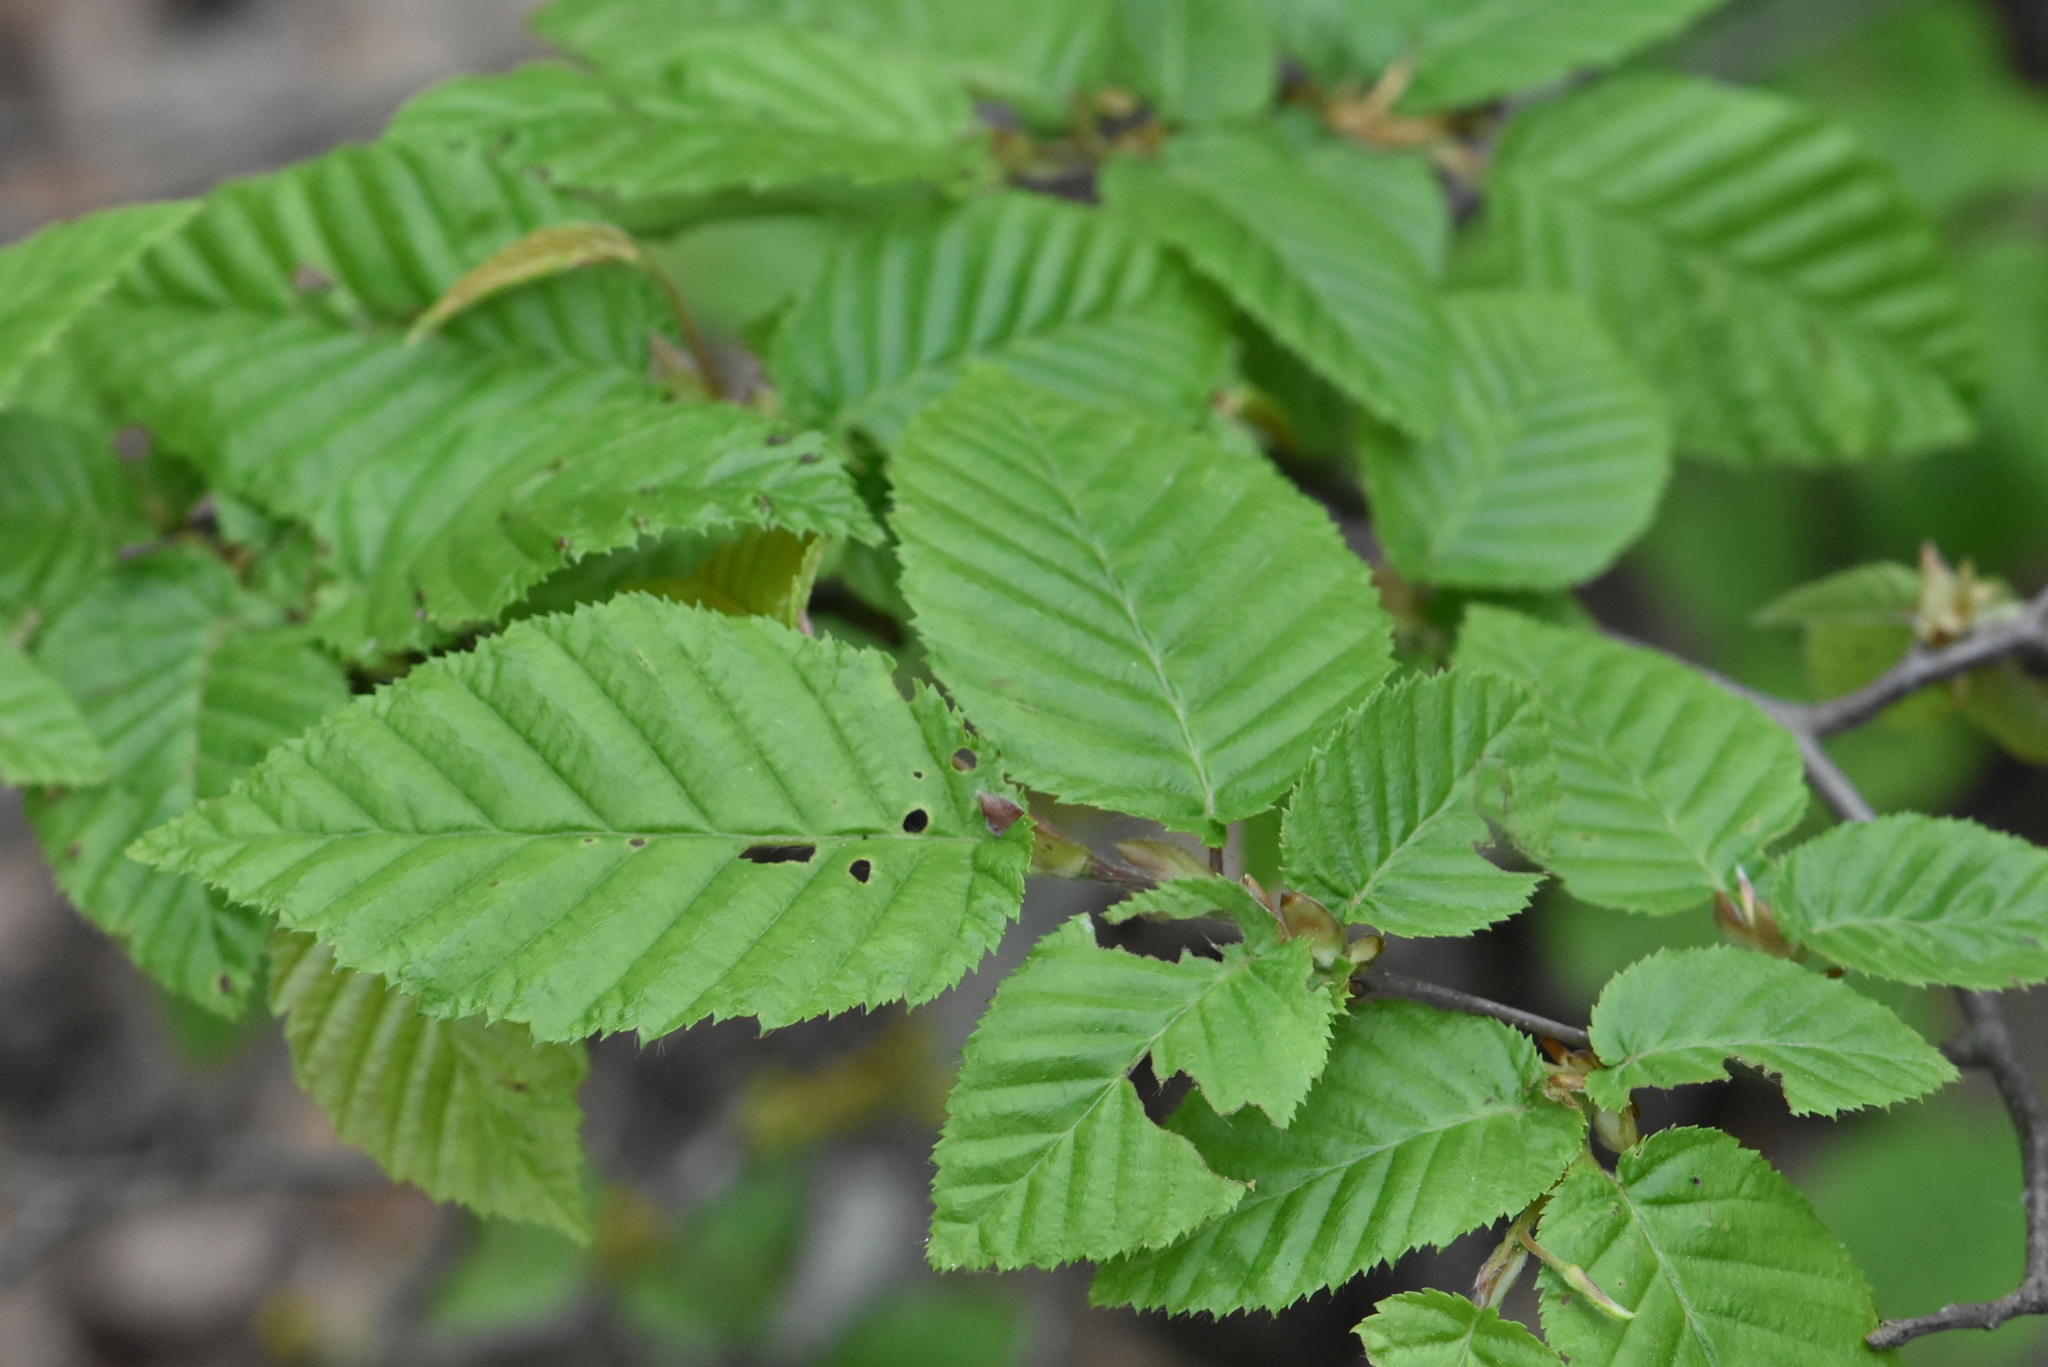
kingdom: Plantae
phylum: Tracheophyta
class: Magnoliopsida
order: Fagales
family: Betulaceae
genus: Carpinus
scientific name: Carpinus orientalis
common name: Eastern hornbeam
